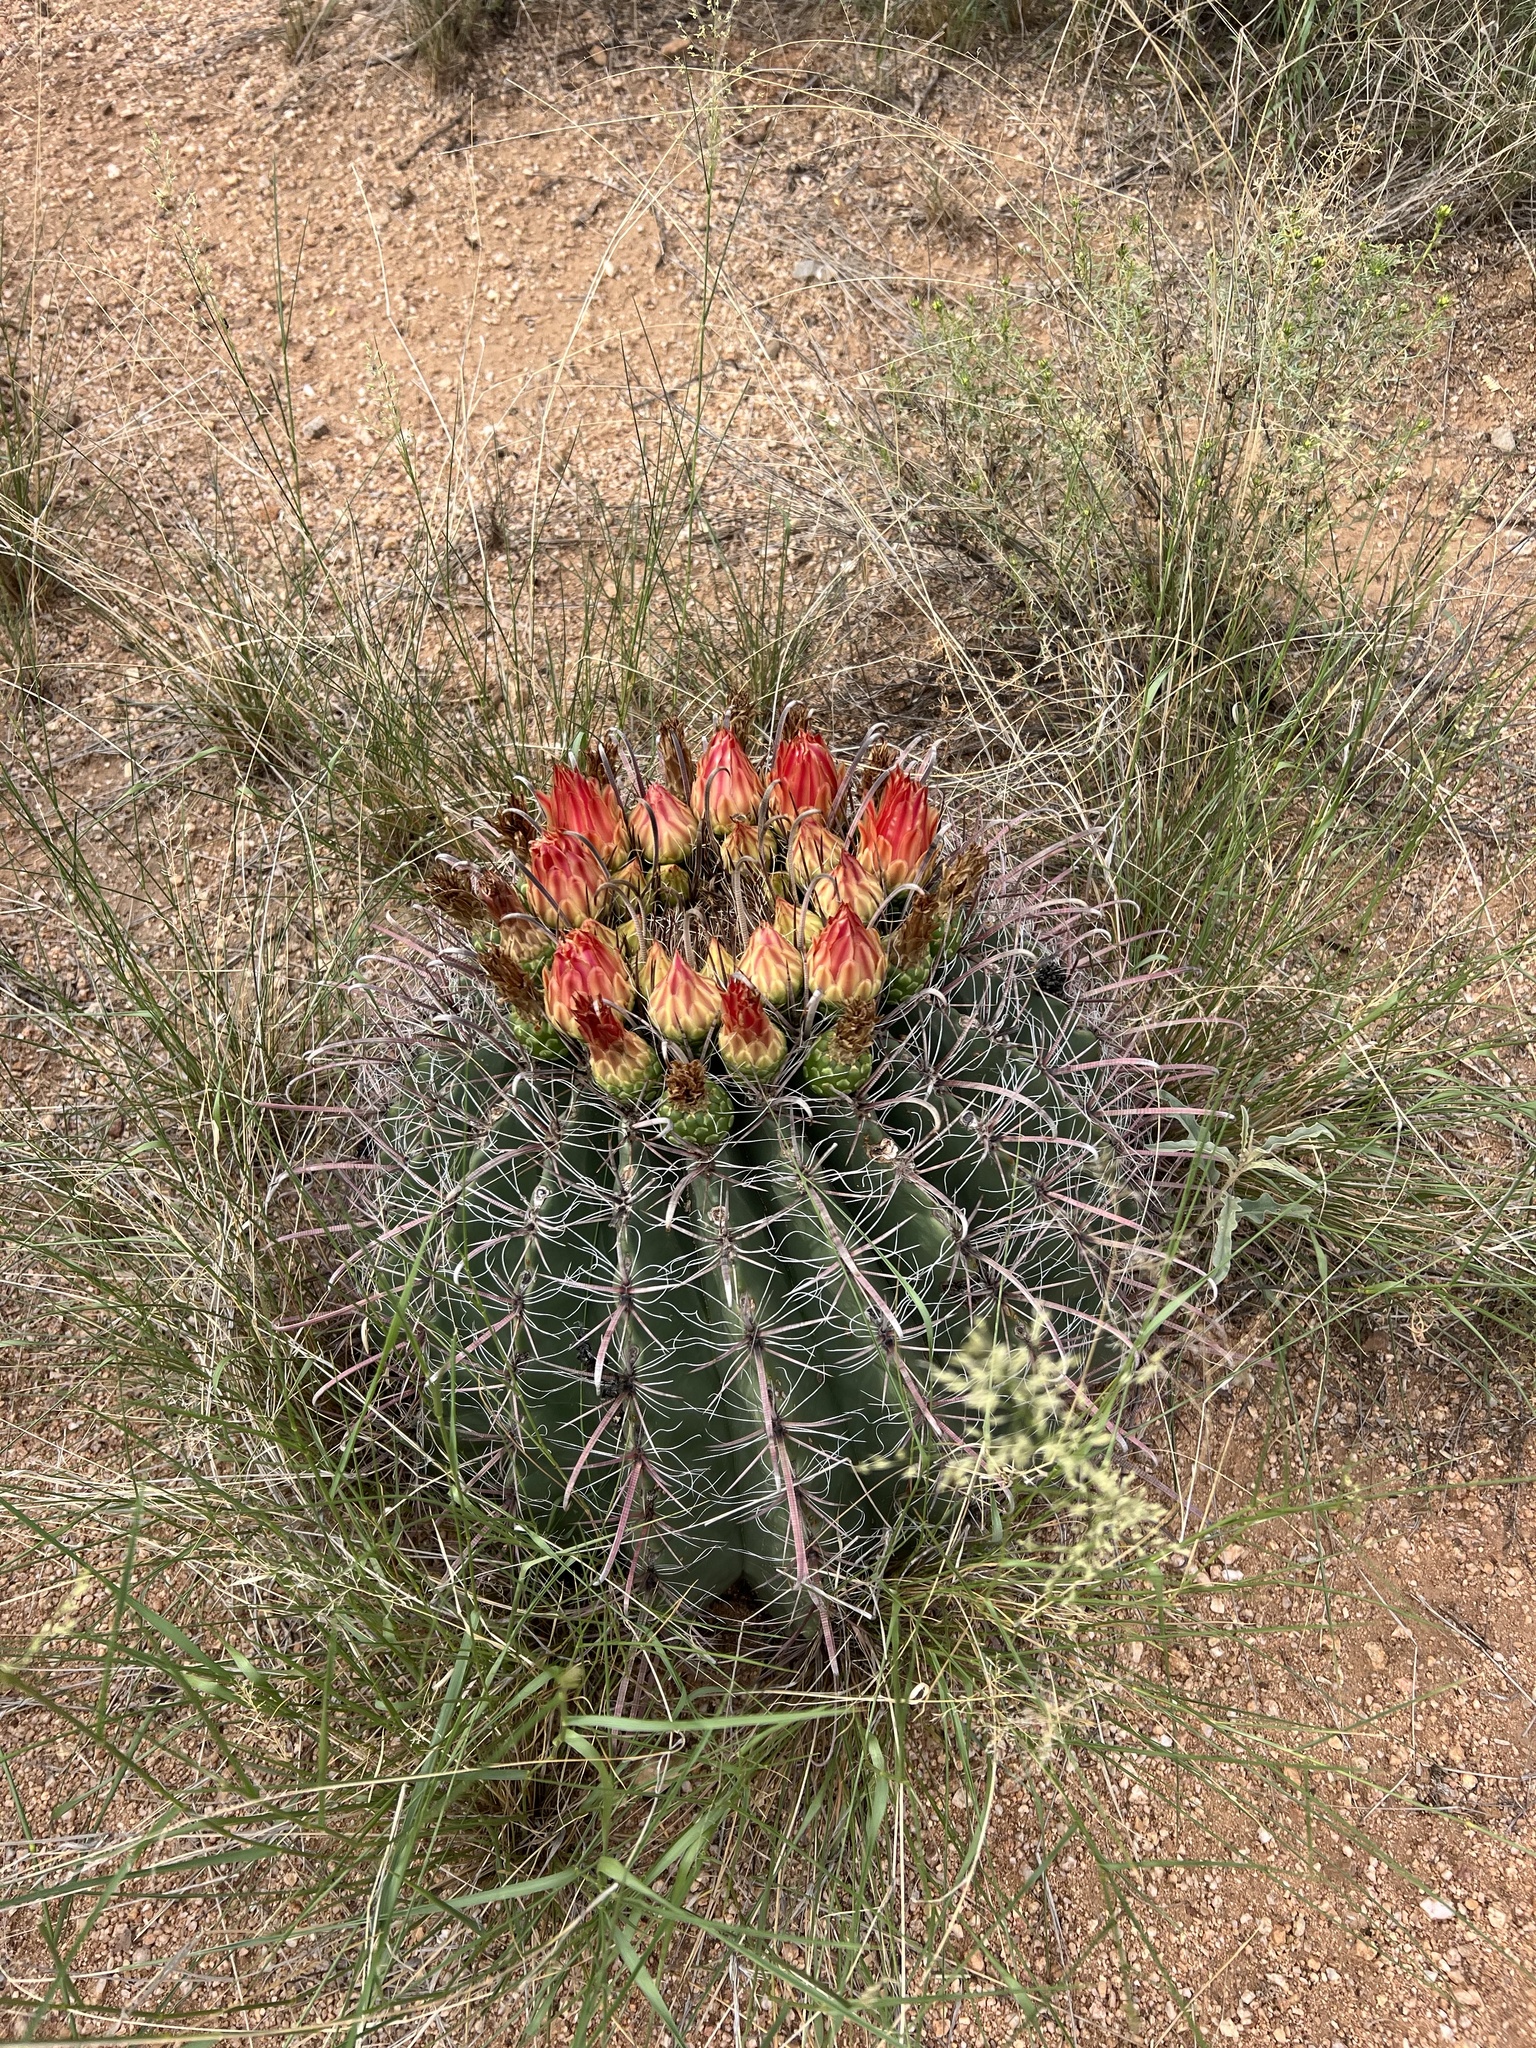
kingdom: Plantae
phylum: Tracheophyta
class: Magnoliopsida
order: Caryophyllales
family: Cactaceae
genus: Ferocactus
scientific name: Ferocactus wislizeni
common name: Candy barrel cactus
